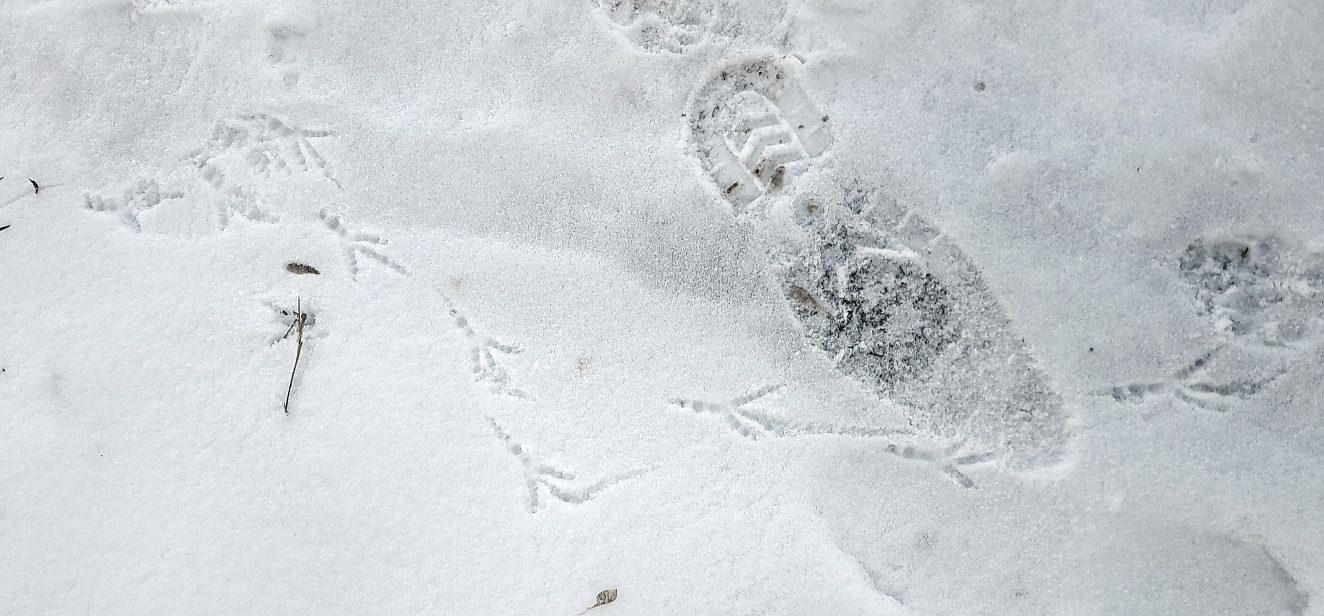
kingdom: Animalia
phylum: Chordata
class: Aves
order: Passeriformes
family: Corvidae
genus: Corvus
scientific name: Corvus cornix
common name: Hooded crow
